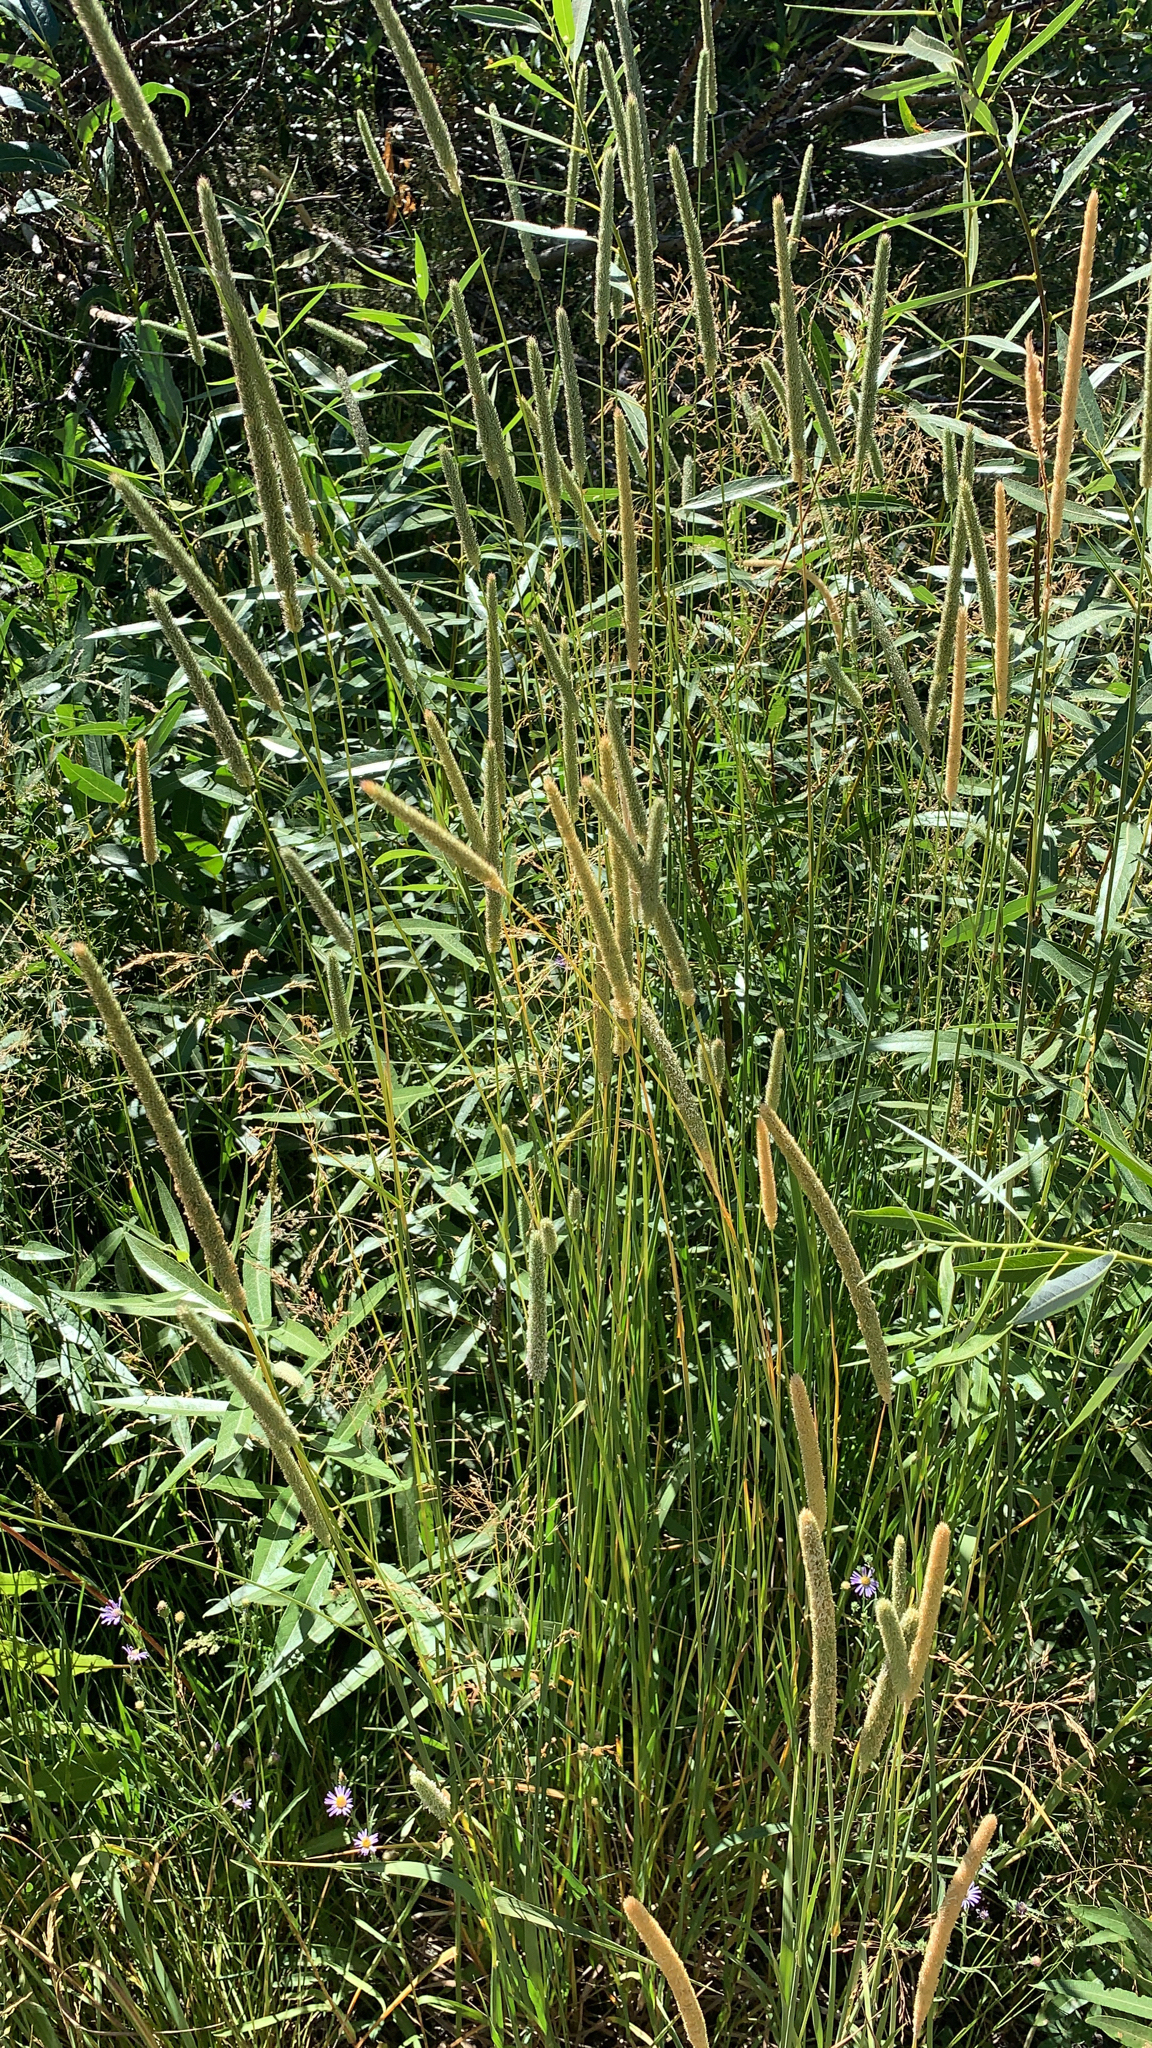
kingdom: Plantae
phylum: Tracheophyta
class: Liliopsida
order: Poales
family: Poaceae
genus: Phleum
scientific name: Phleum pratense
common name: Timothy grass
